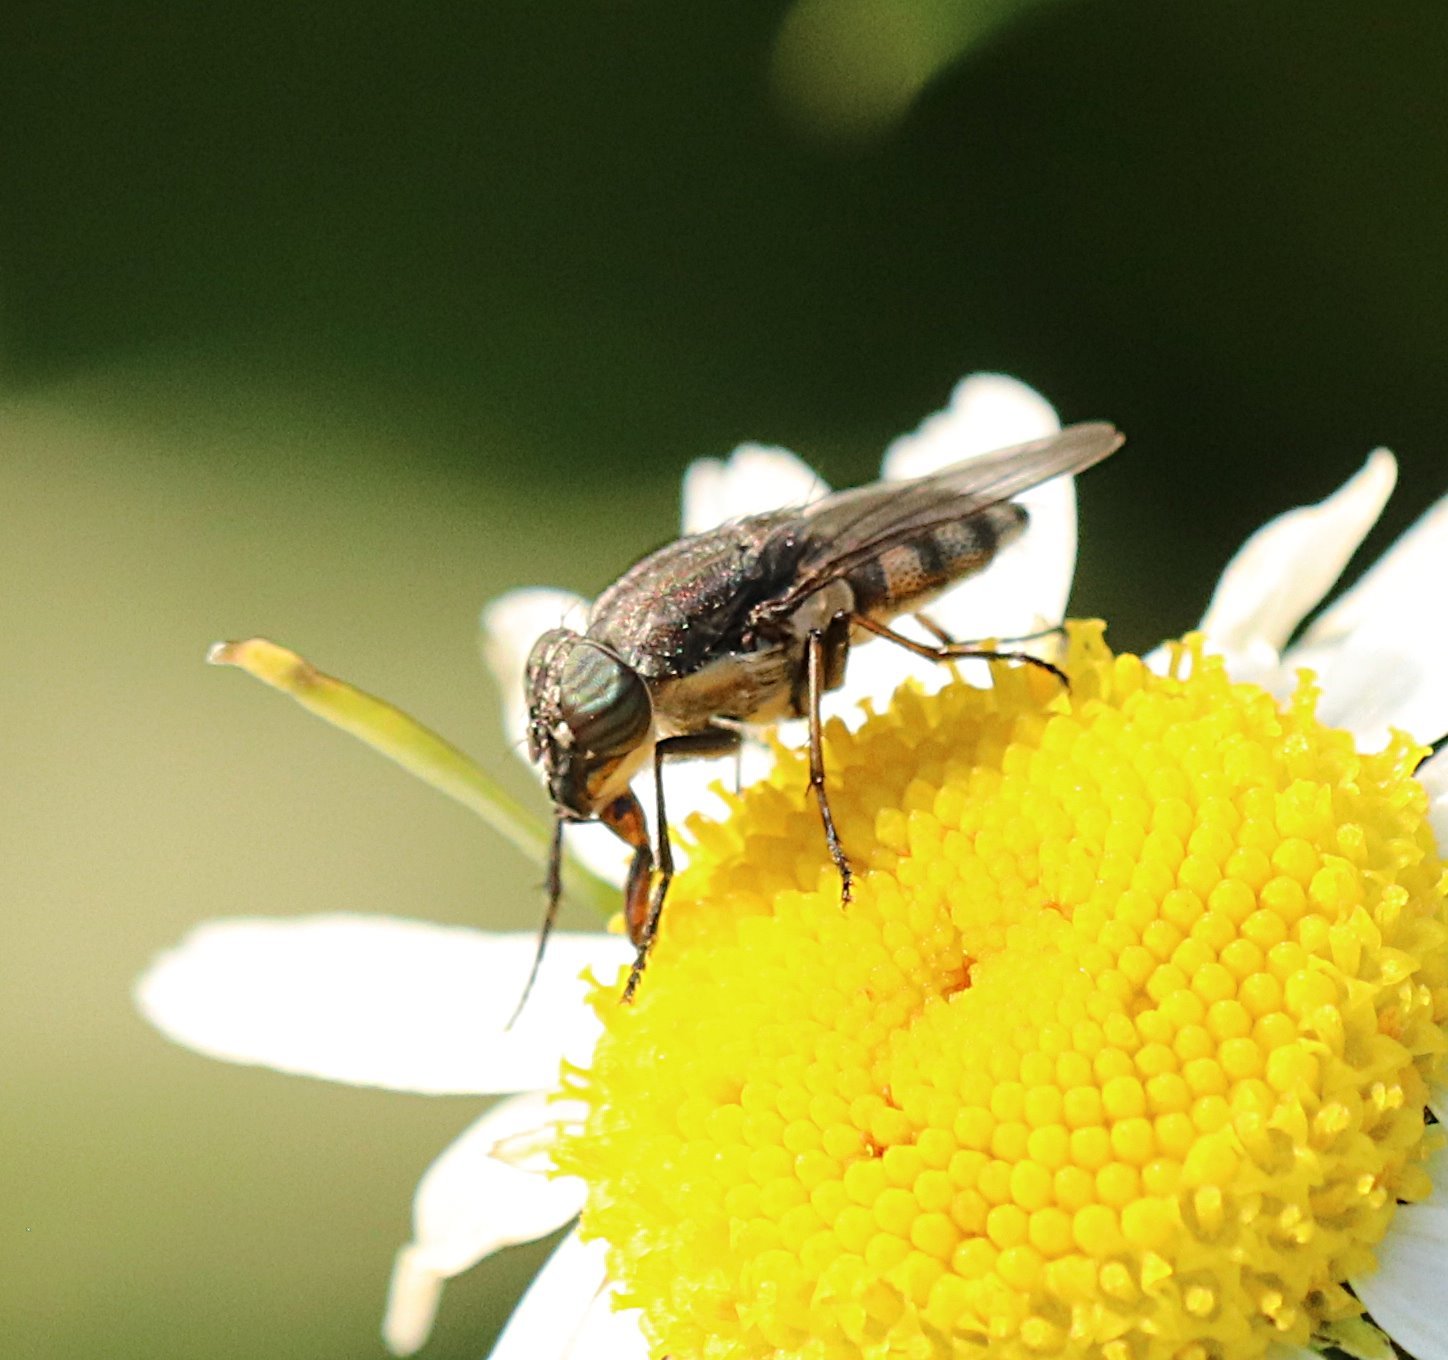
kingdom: Animalia
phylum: Arthropoda
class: Insecta
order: Diptera
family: Calliphoridae
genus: Stomorhina
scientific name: Stomorhina lunata
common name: Locust blowfly
